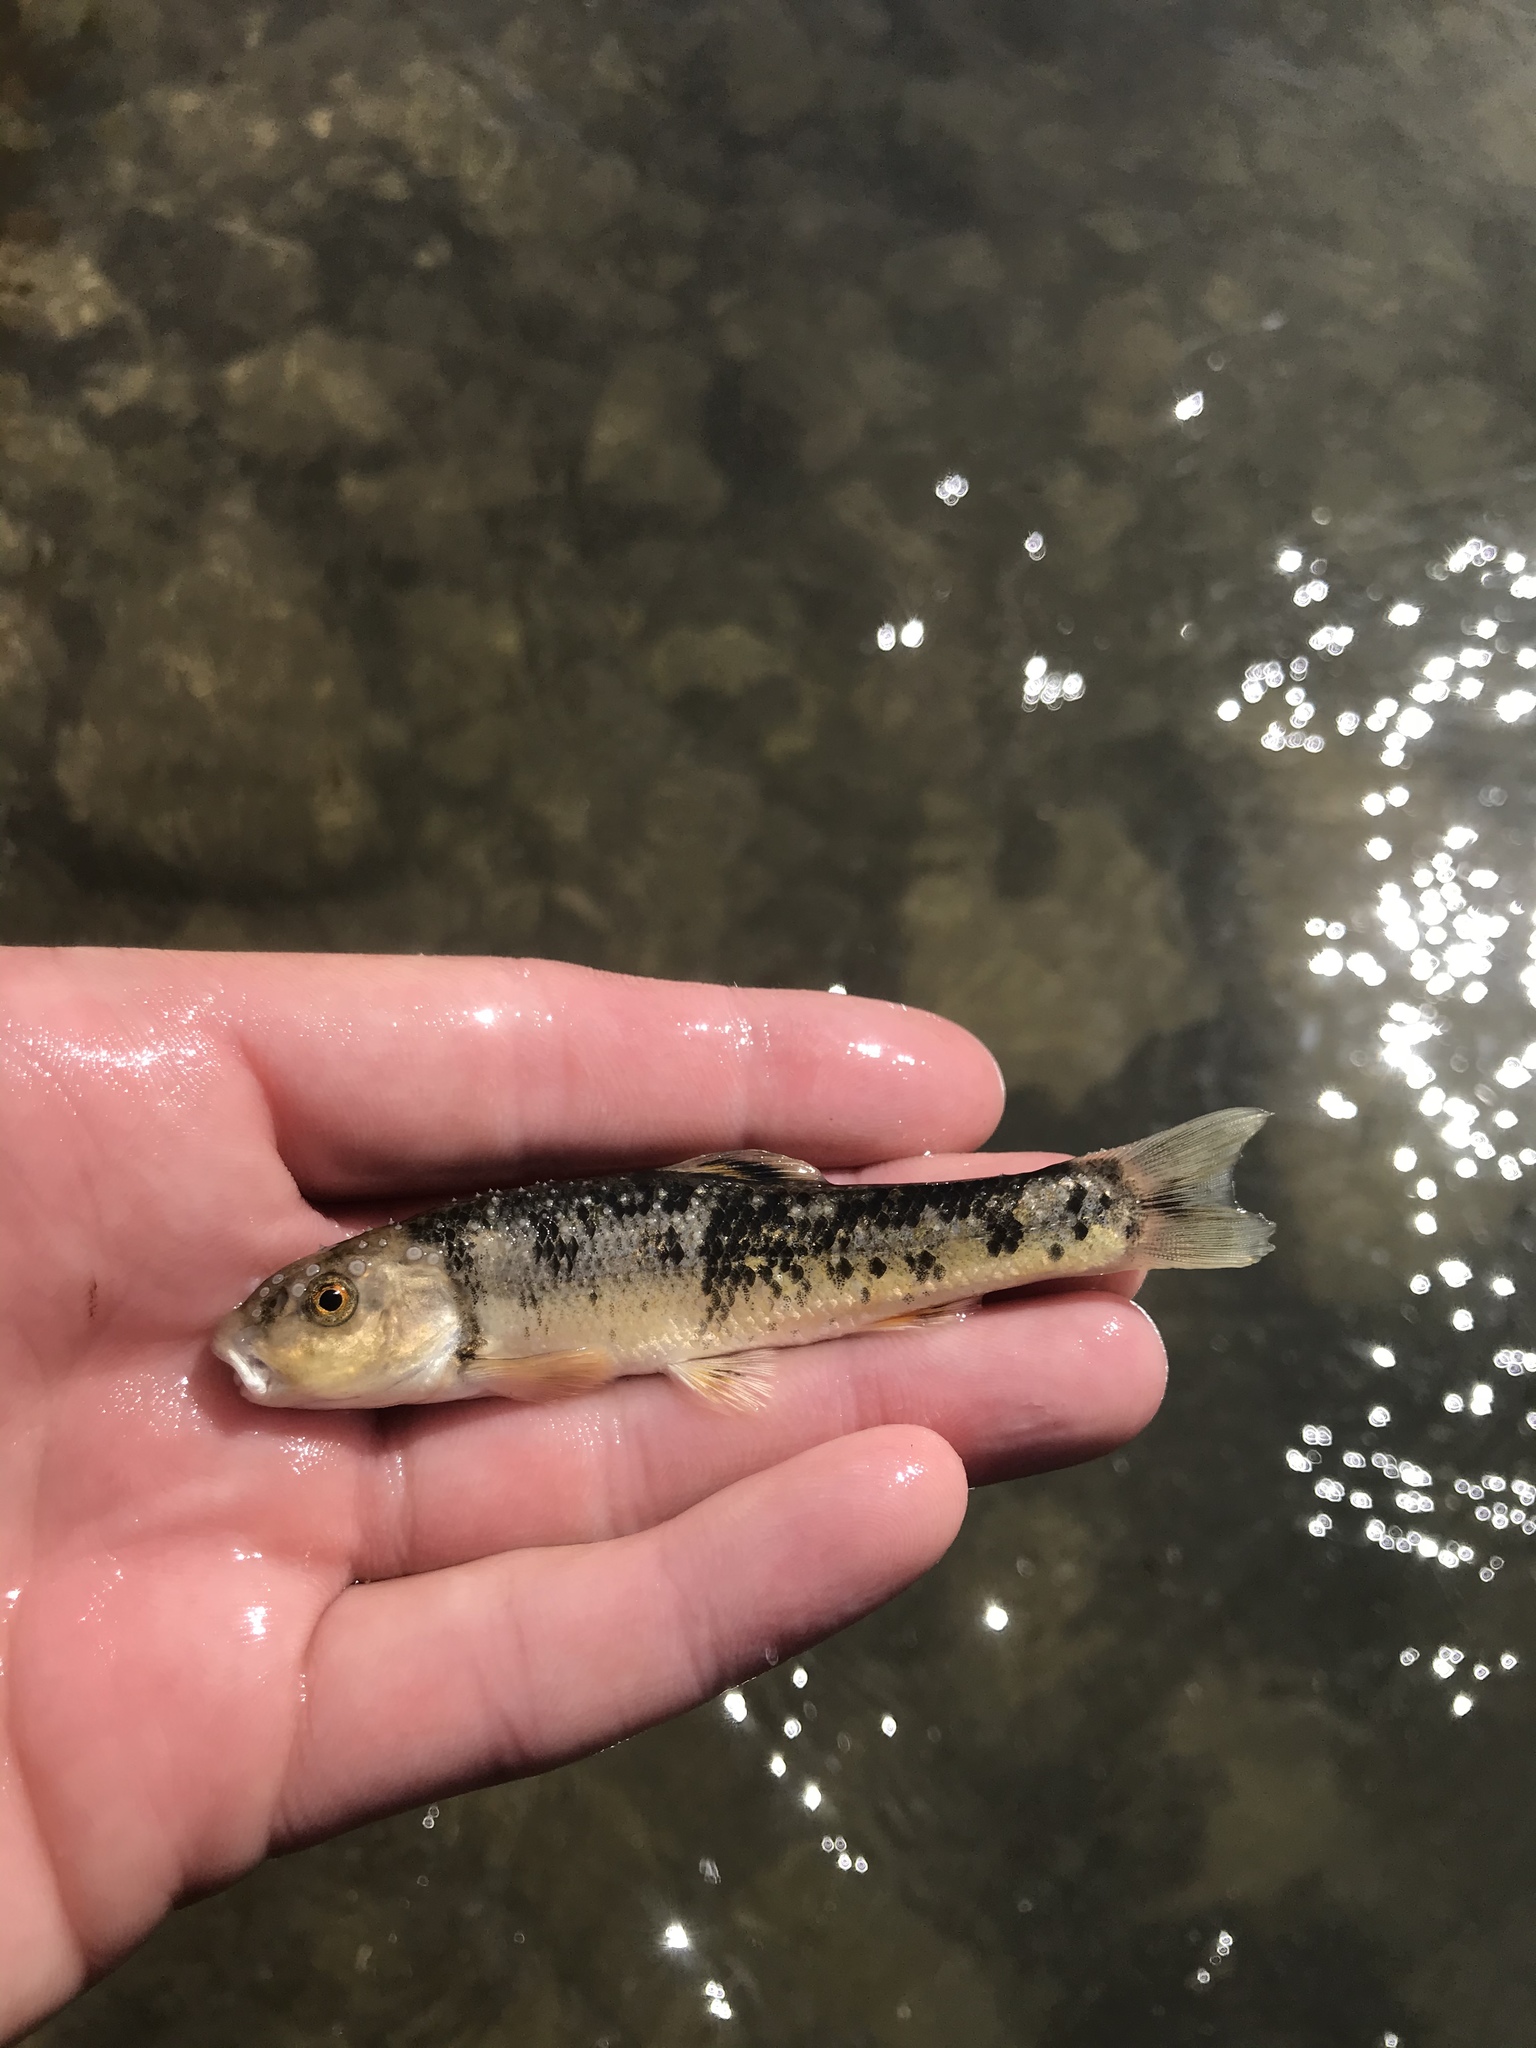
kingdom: Animalia
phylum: Chordata
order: Cypriniformes
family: Cyprinidae
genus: Campostoma
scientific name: Campostoma anomalum
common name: Central stoneroller
